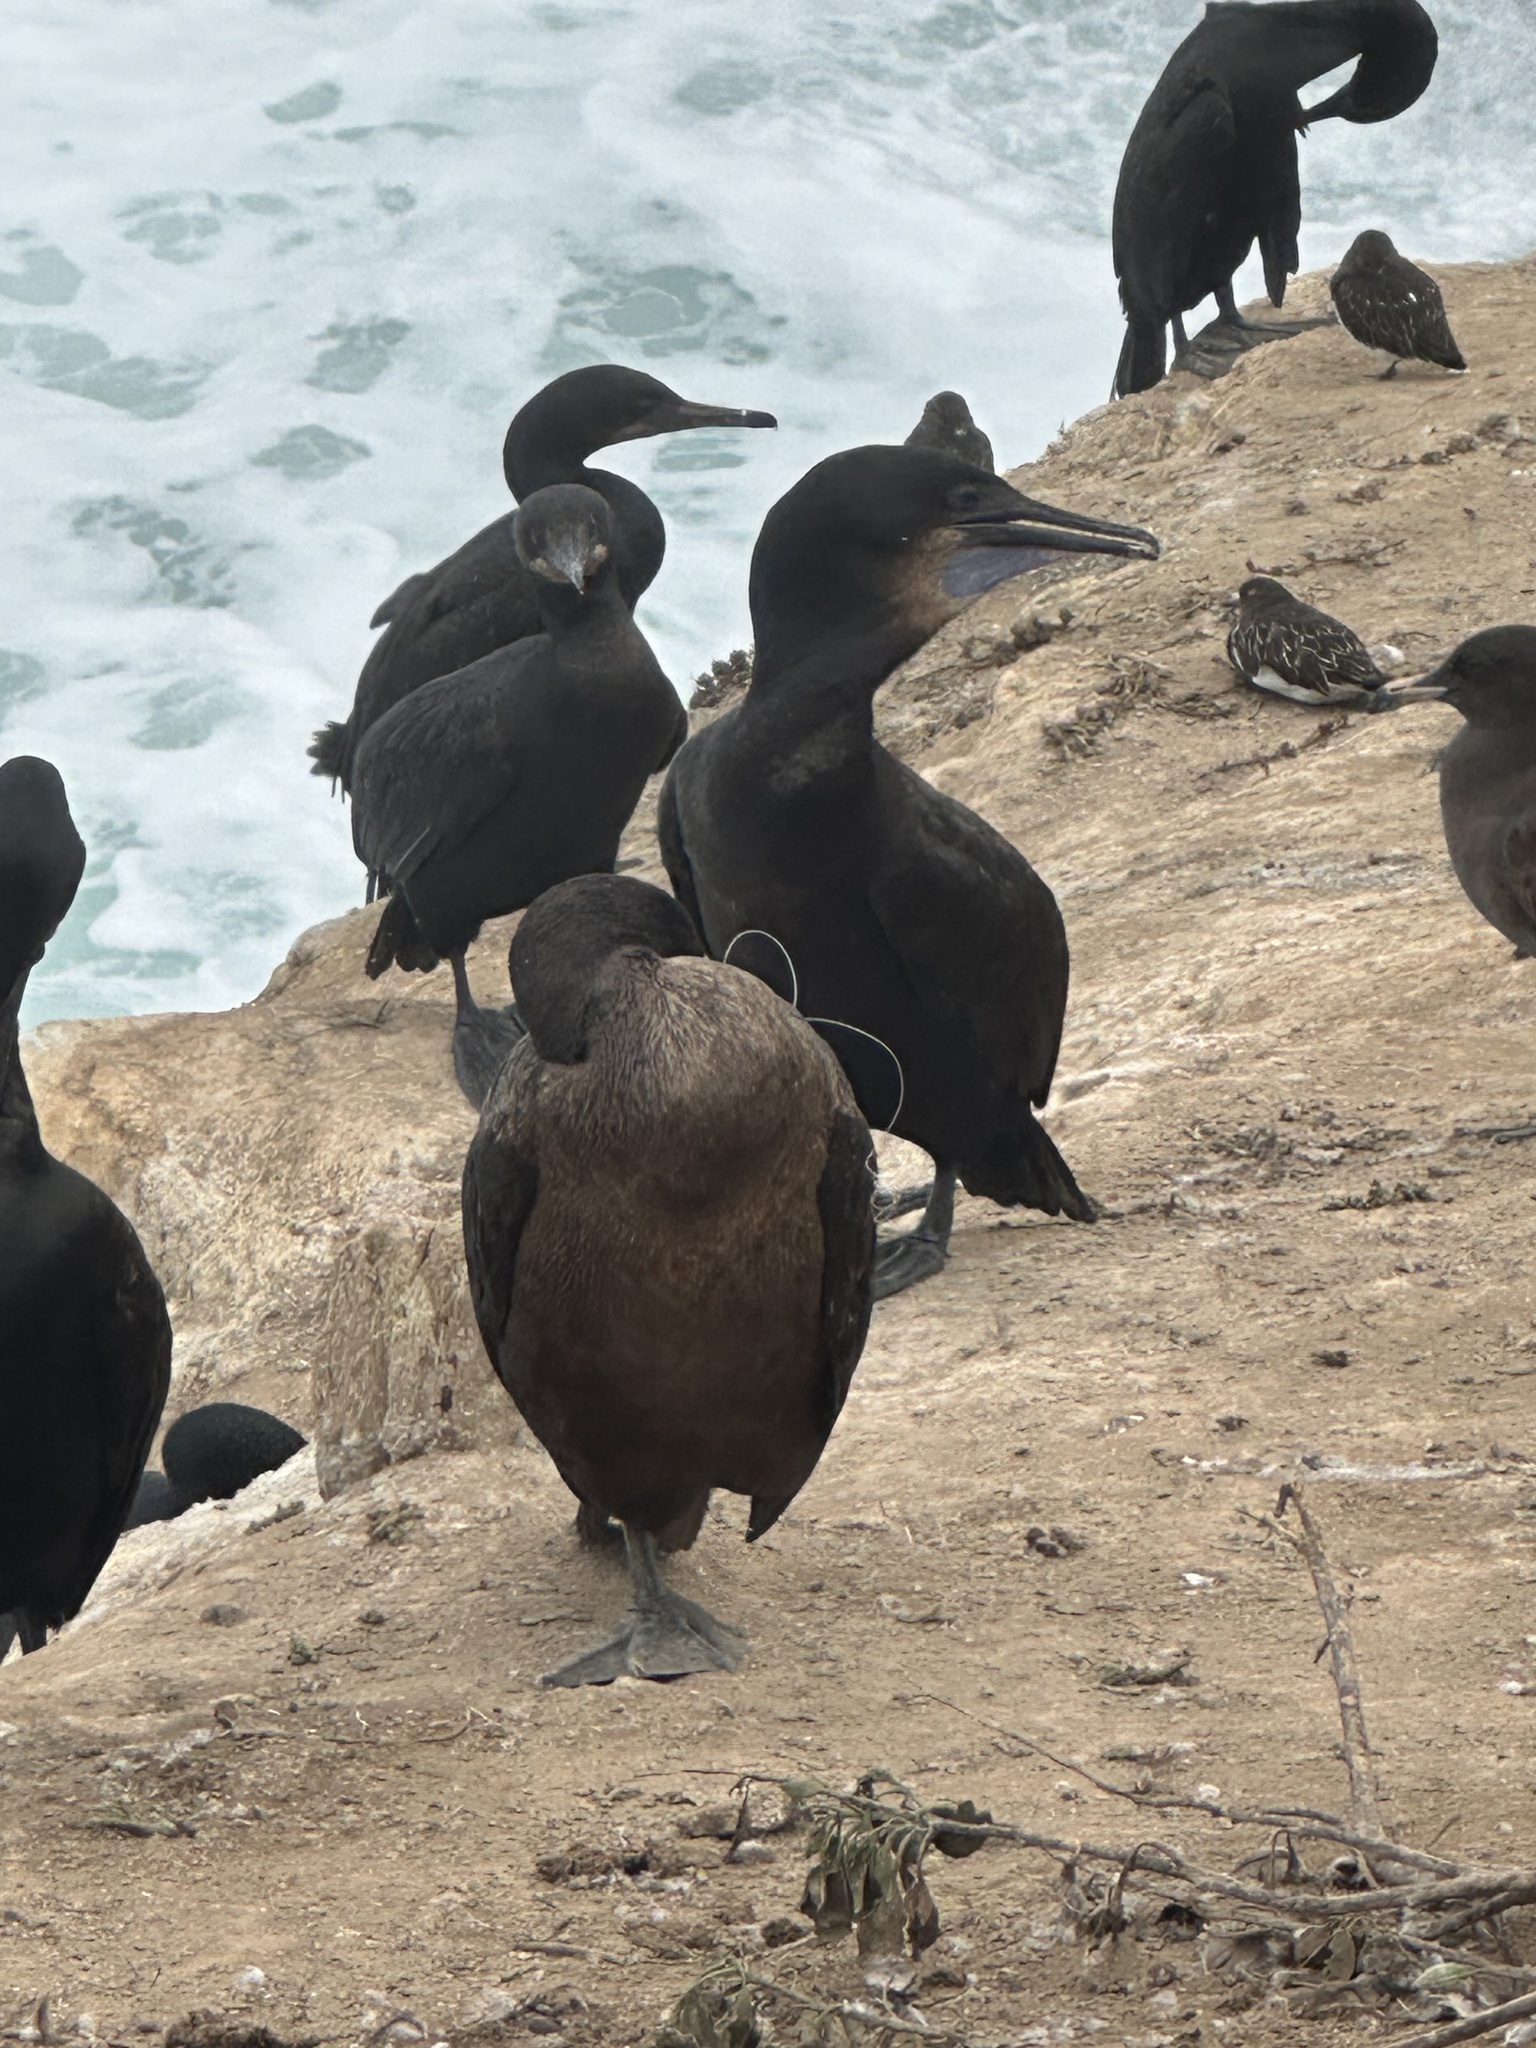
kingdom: Animalia
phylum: Chordata
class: Aves
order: Suliformes
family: Phalacrocoracidae
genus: Urile
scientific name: Urile penicillatus
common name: Brandt's cormorant
